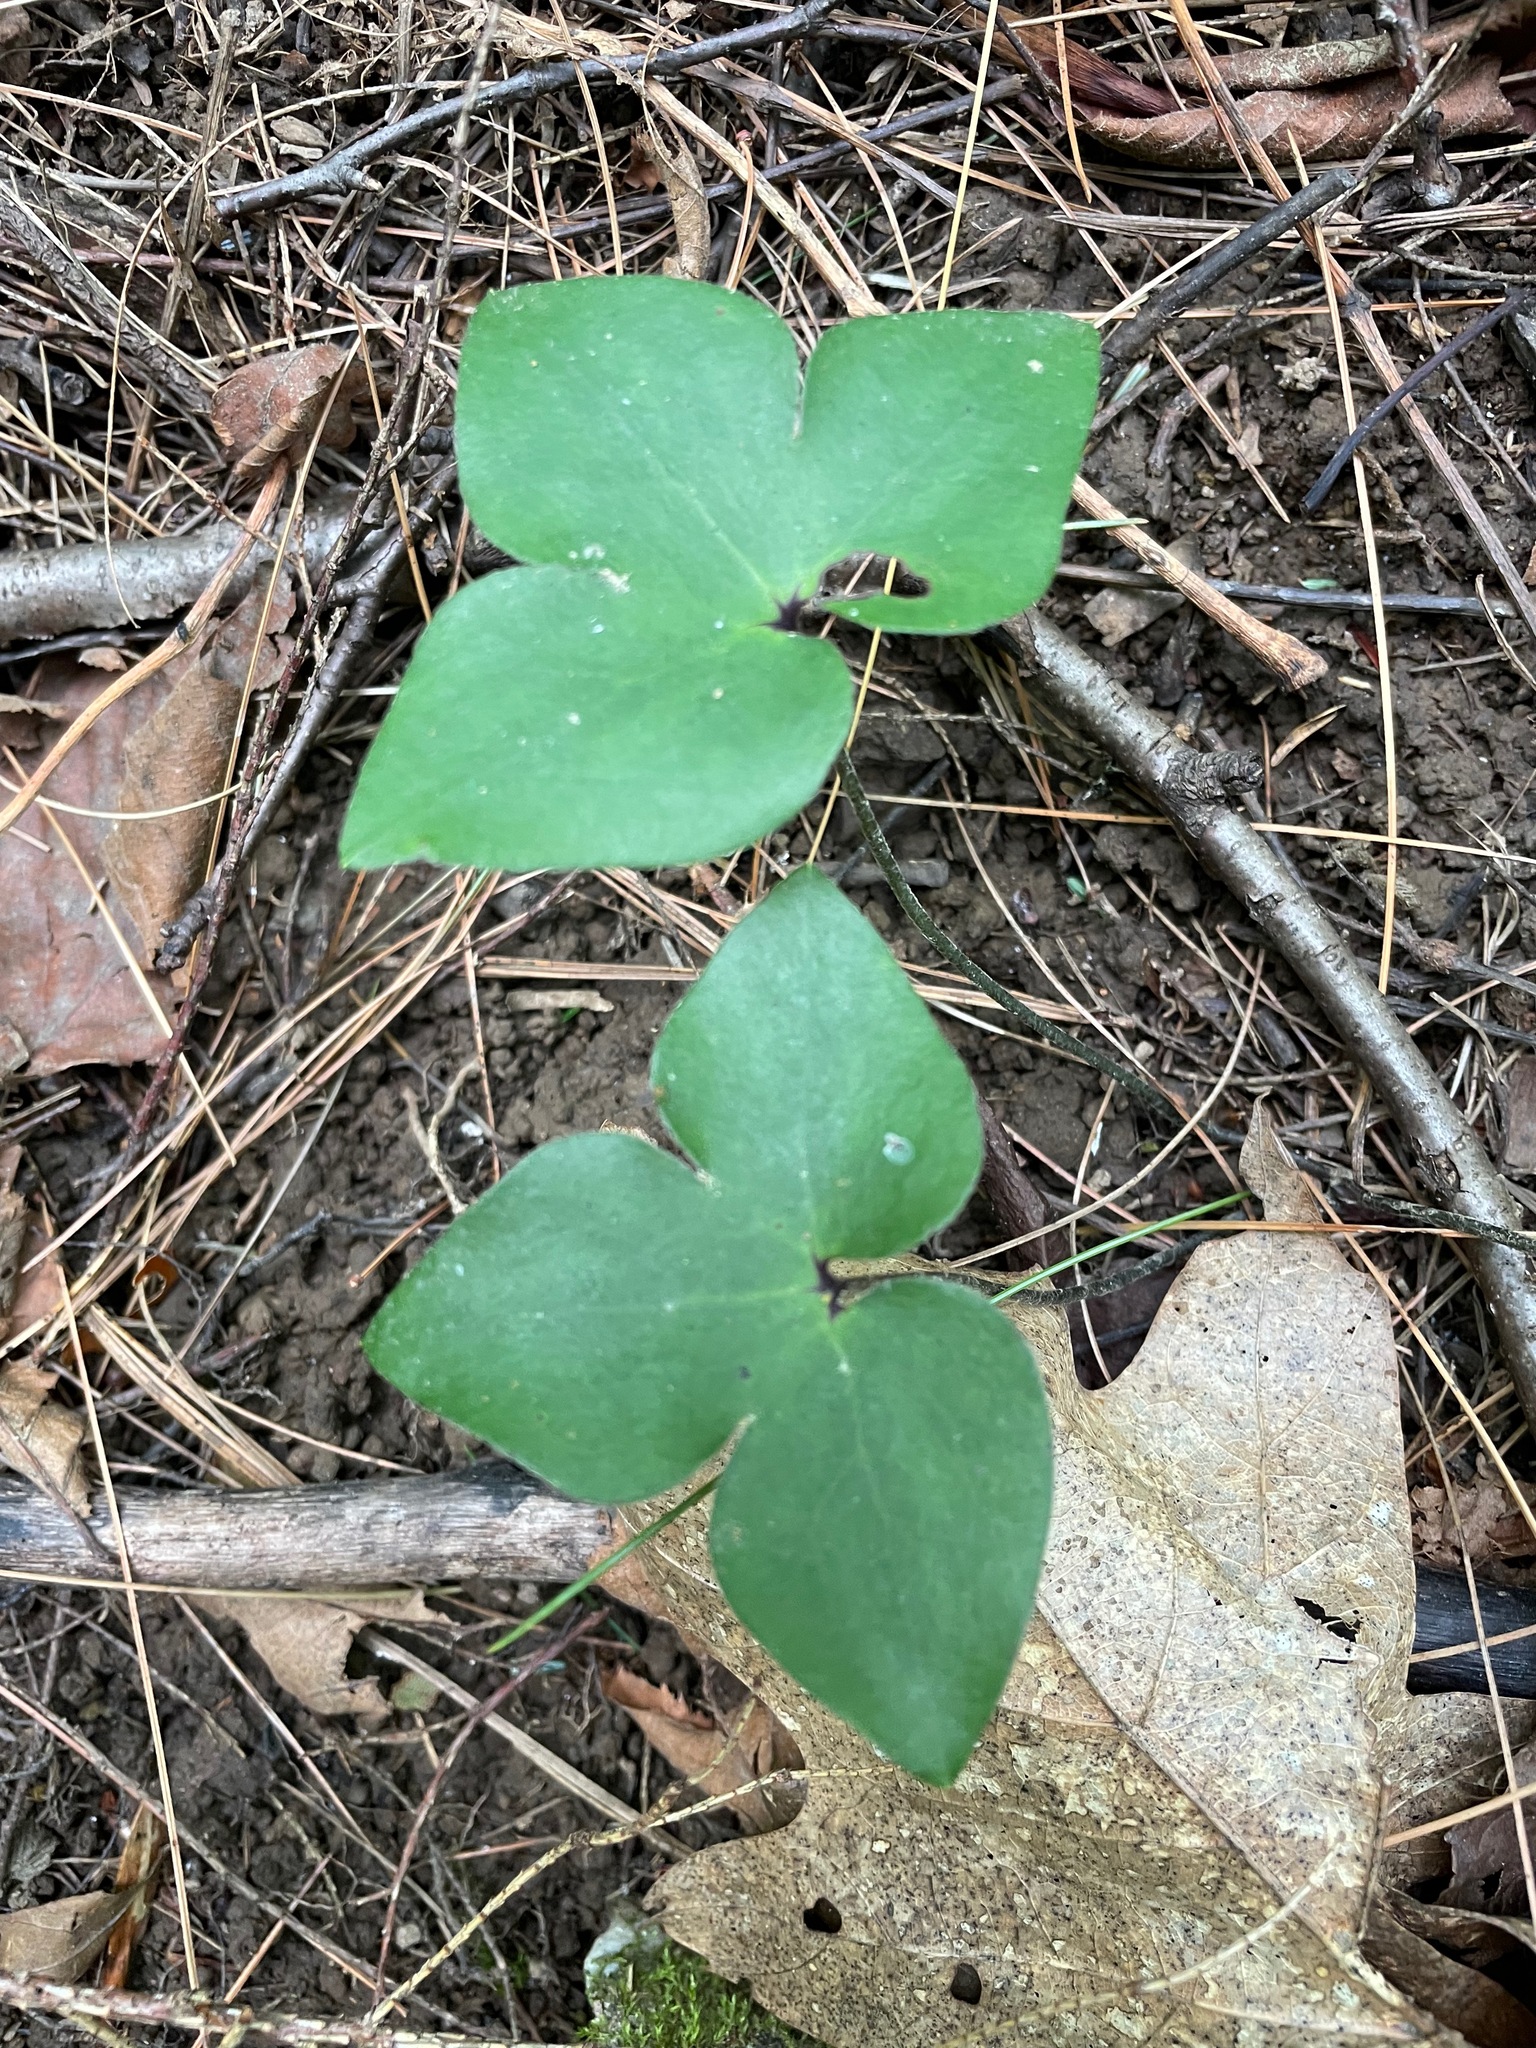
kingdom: Plantae
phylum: Tracheophyta
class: Magnoliopsida
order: Ranunculales
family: Ranunculaceae
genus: Hepatica
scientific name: Hepatica acutiloba
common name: Sharp-lobed hepatica
